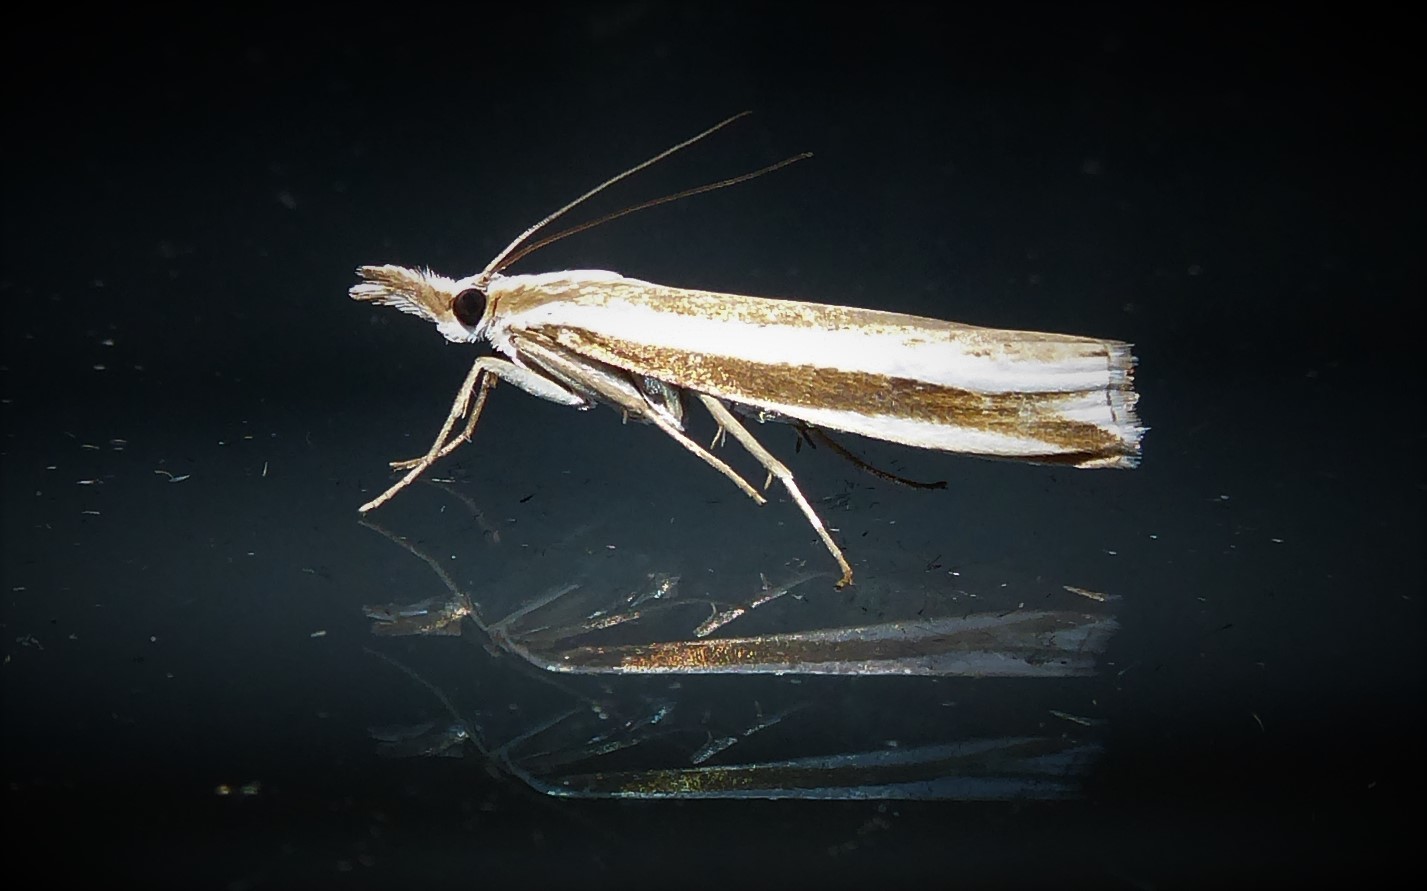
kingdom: Animalia
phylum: Arthropoda
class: Insecta
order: Lepidoptera
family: Crambidae
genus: Orocrambus
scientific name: Orocrambus apicellus
